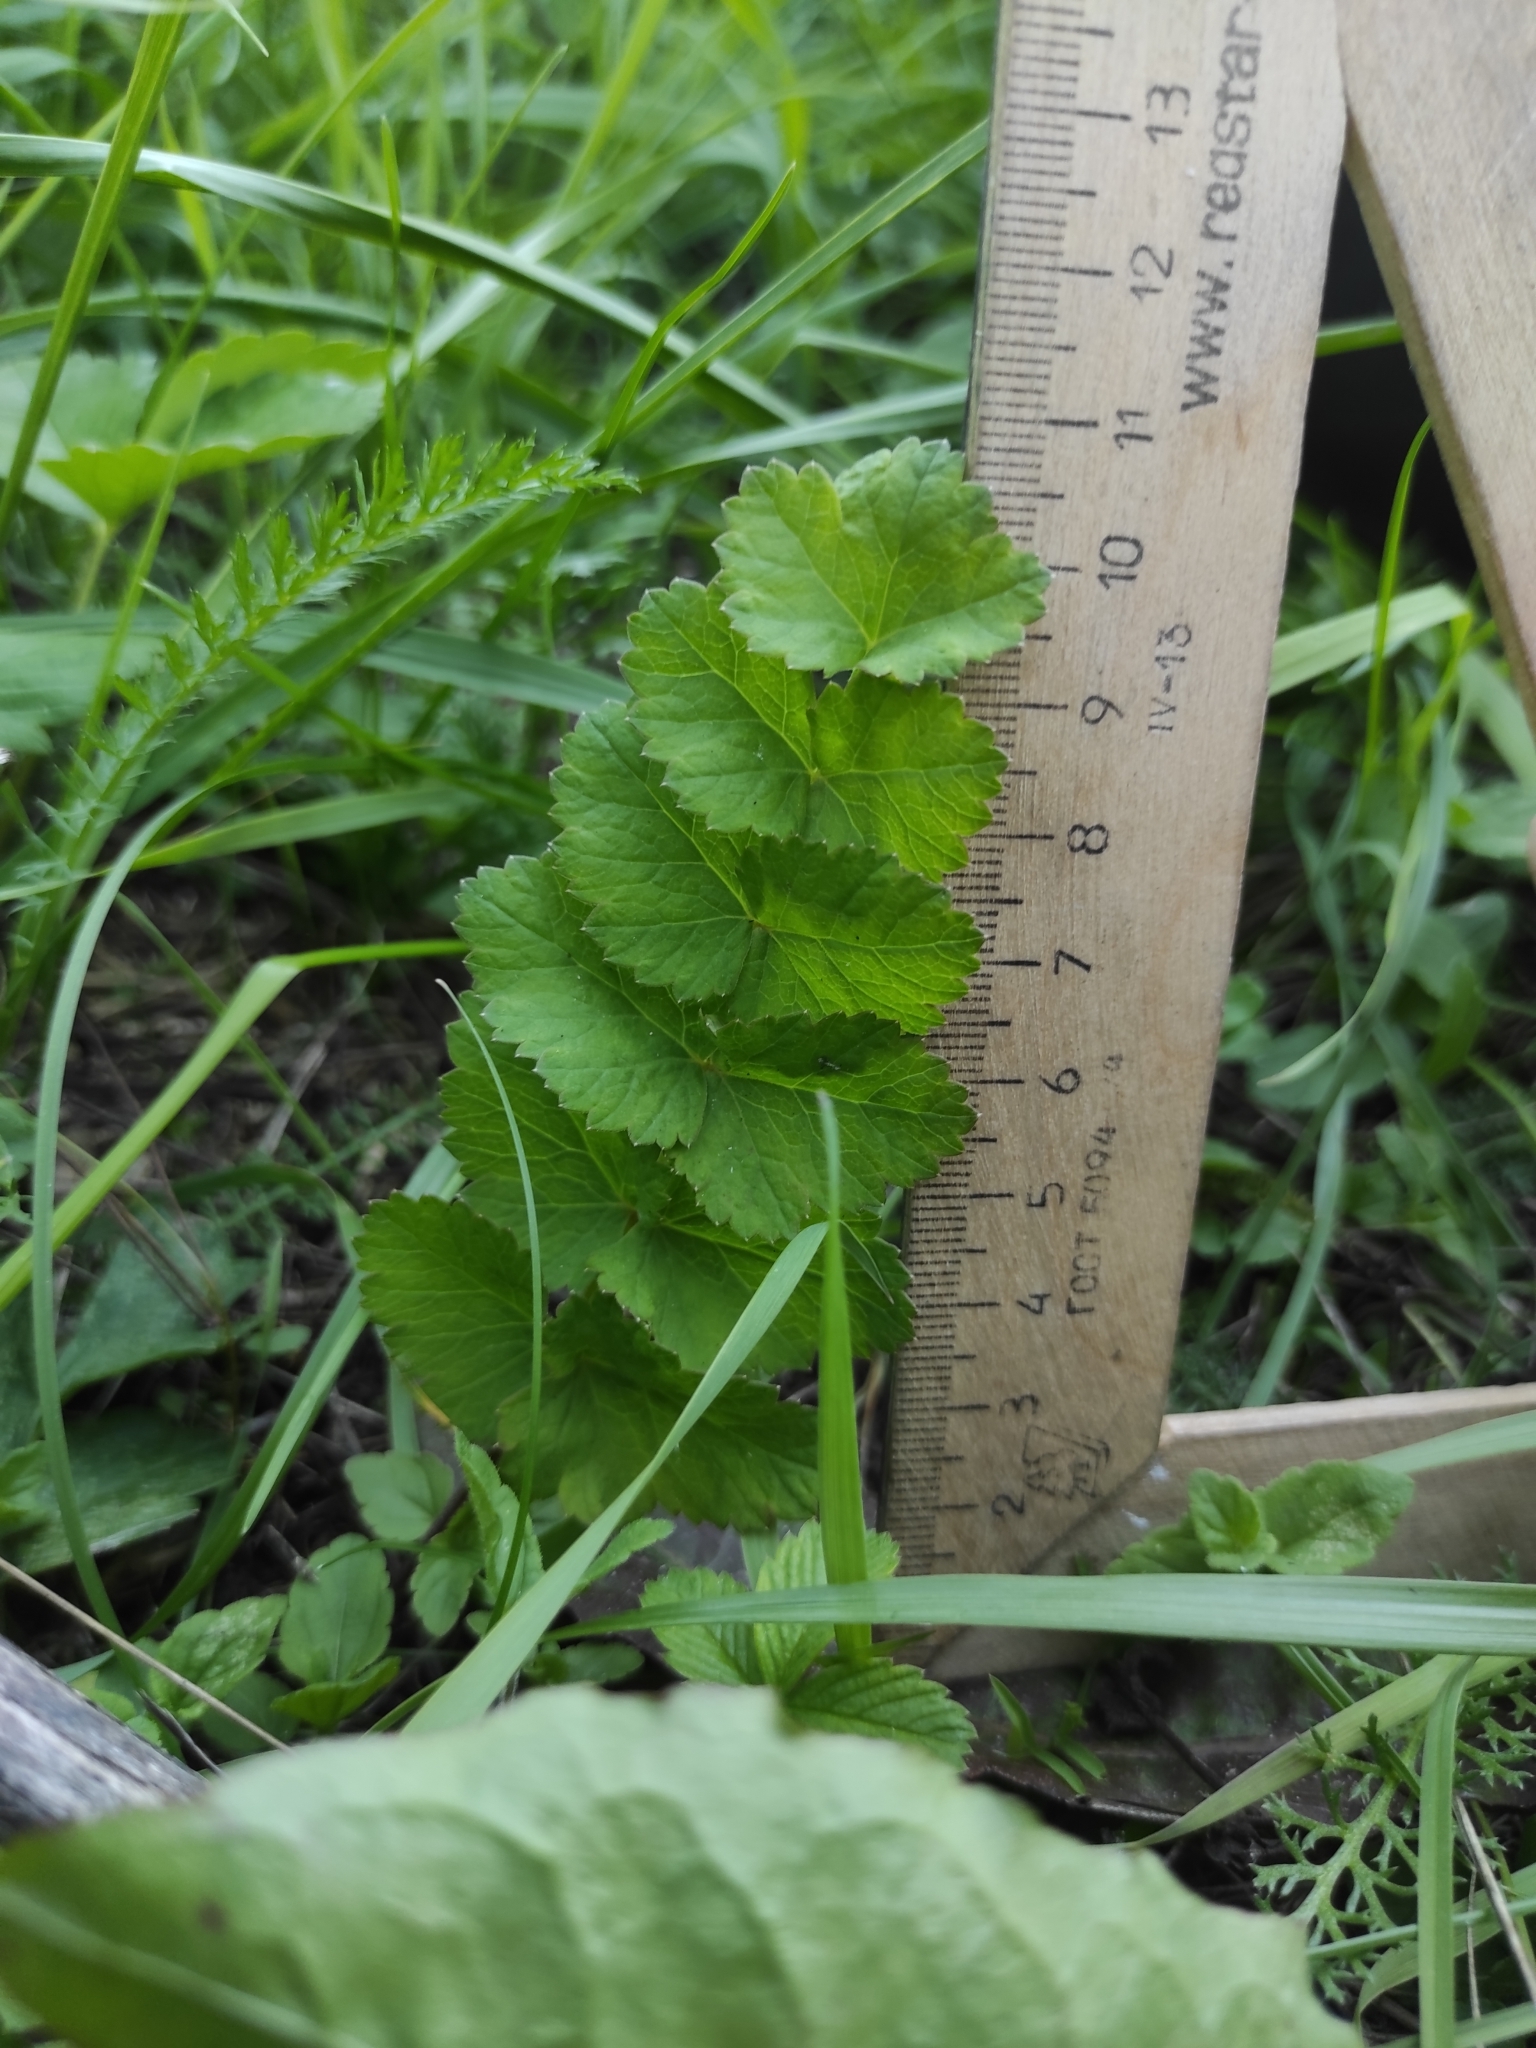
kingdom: Plantae
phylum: Tracheophyta
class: Magnoliopsida
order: Apiales
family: Apiaceae
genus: Pimpinella
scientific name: Pimpinella saxifraga
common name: Burnet-saxifrage
